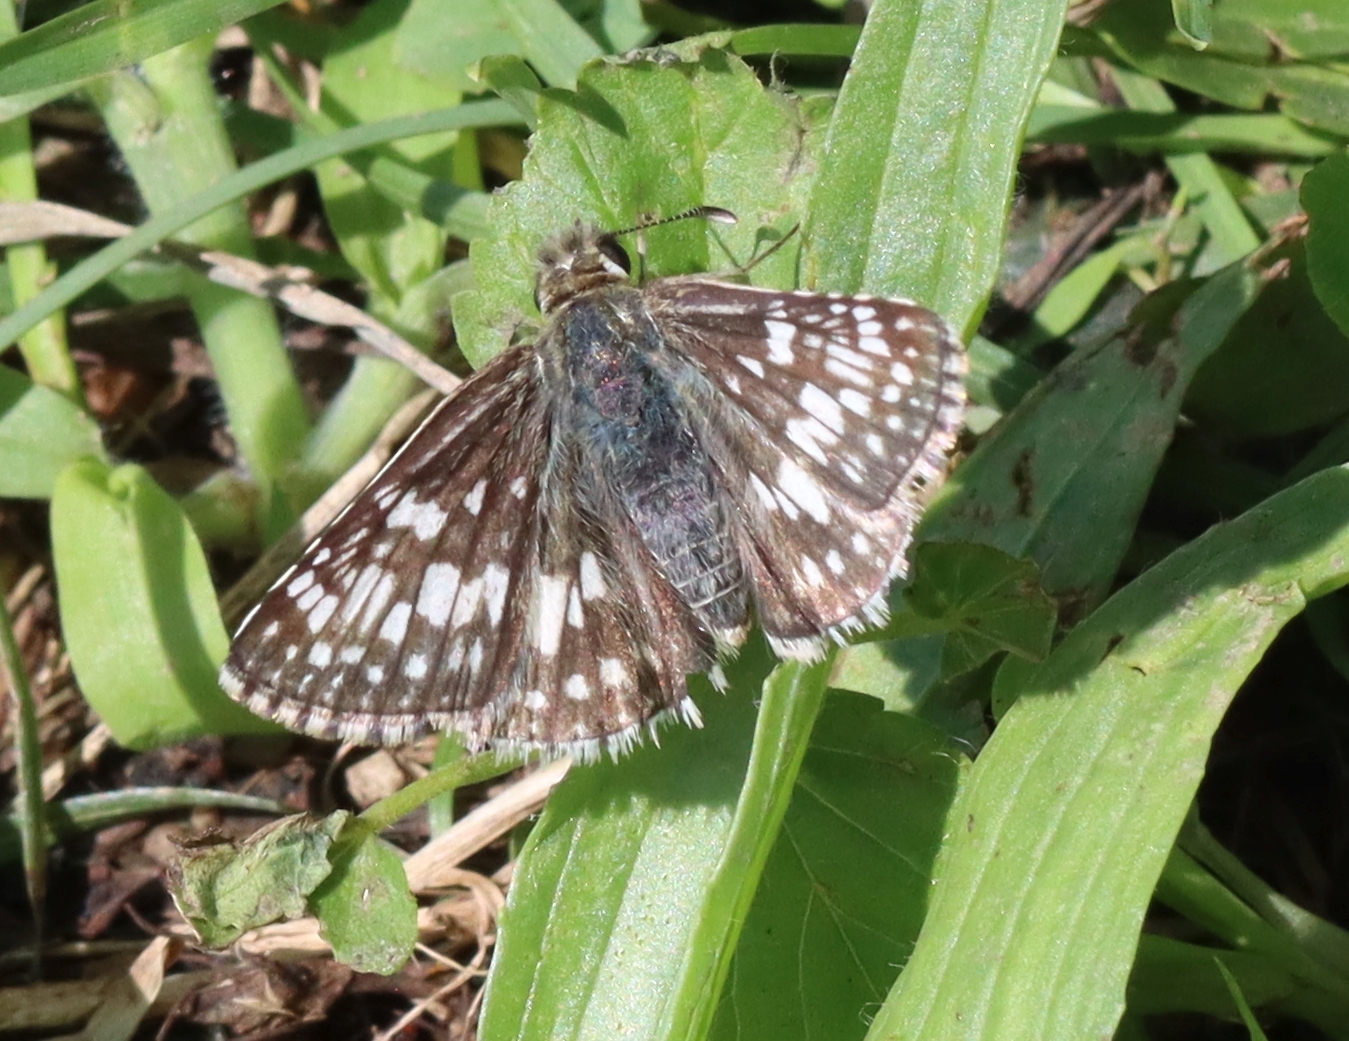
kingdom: Animalia
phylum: Arthropoda
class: Insecta
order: Lepidoptera
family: Hesperiidae
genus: Burnsius
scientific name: Burnsius communis
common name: Common checkered-skipper
